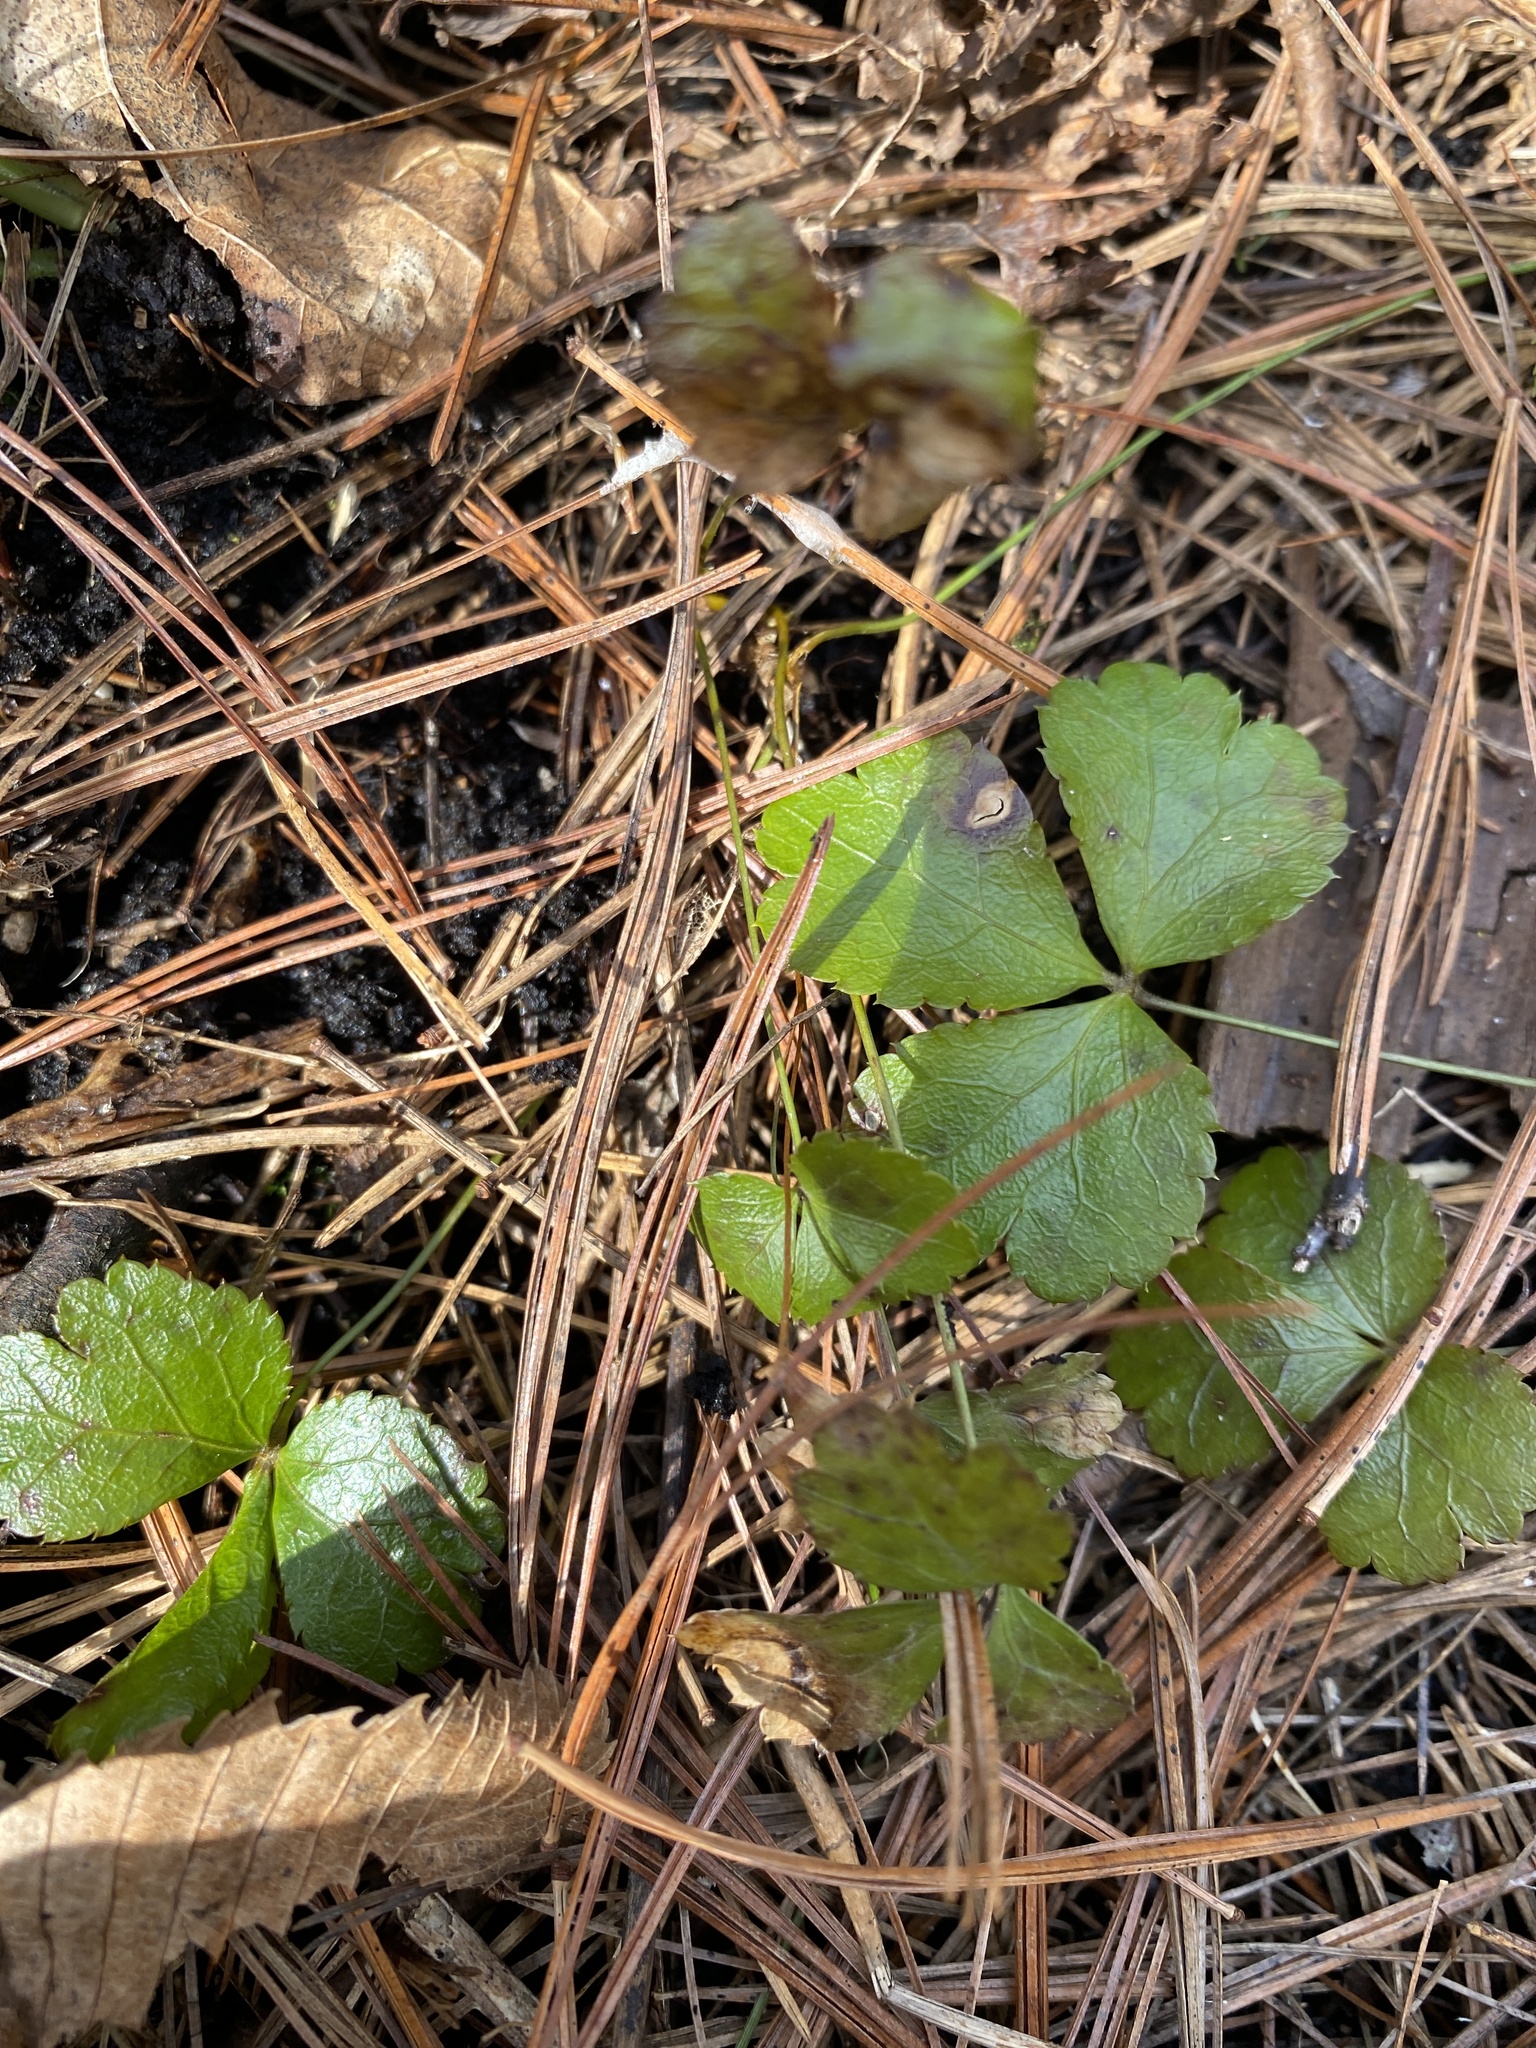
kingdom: Plantae
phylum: Tracheophyta
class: Magnoliopsida
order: Ranunculales
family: Ranunculaceae
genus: Coptis
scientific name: Coptis trifolia
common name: Canker-root
